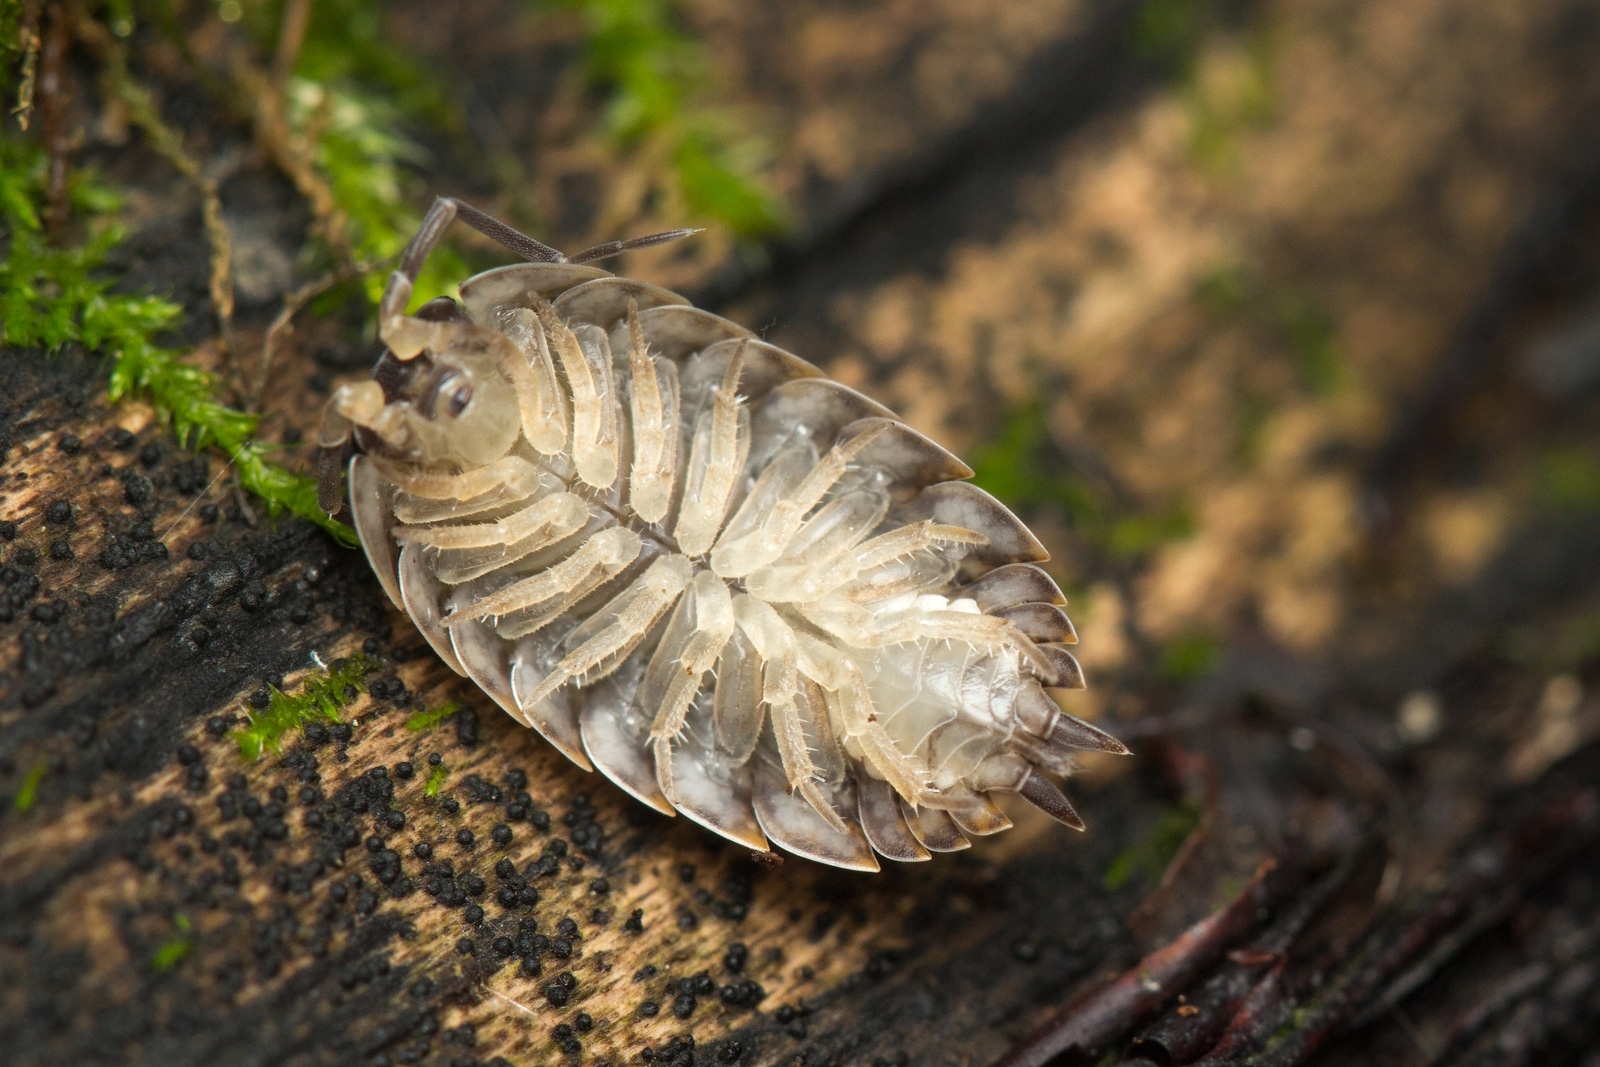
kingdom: Animalia
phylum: Arthropoda
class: Malacostraca
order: Isopoda
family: Trachelipodidae
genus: Trachelipus
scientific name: Trachelipus rathkii
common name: Isopod
